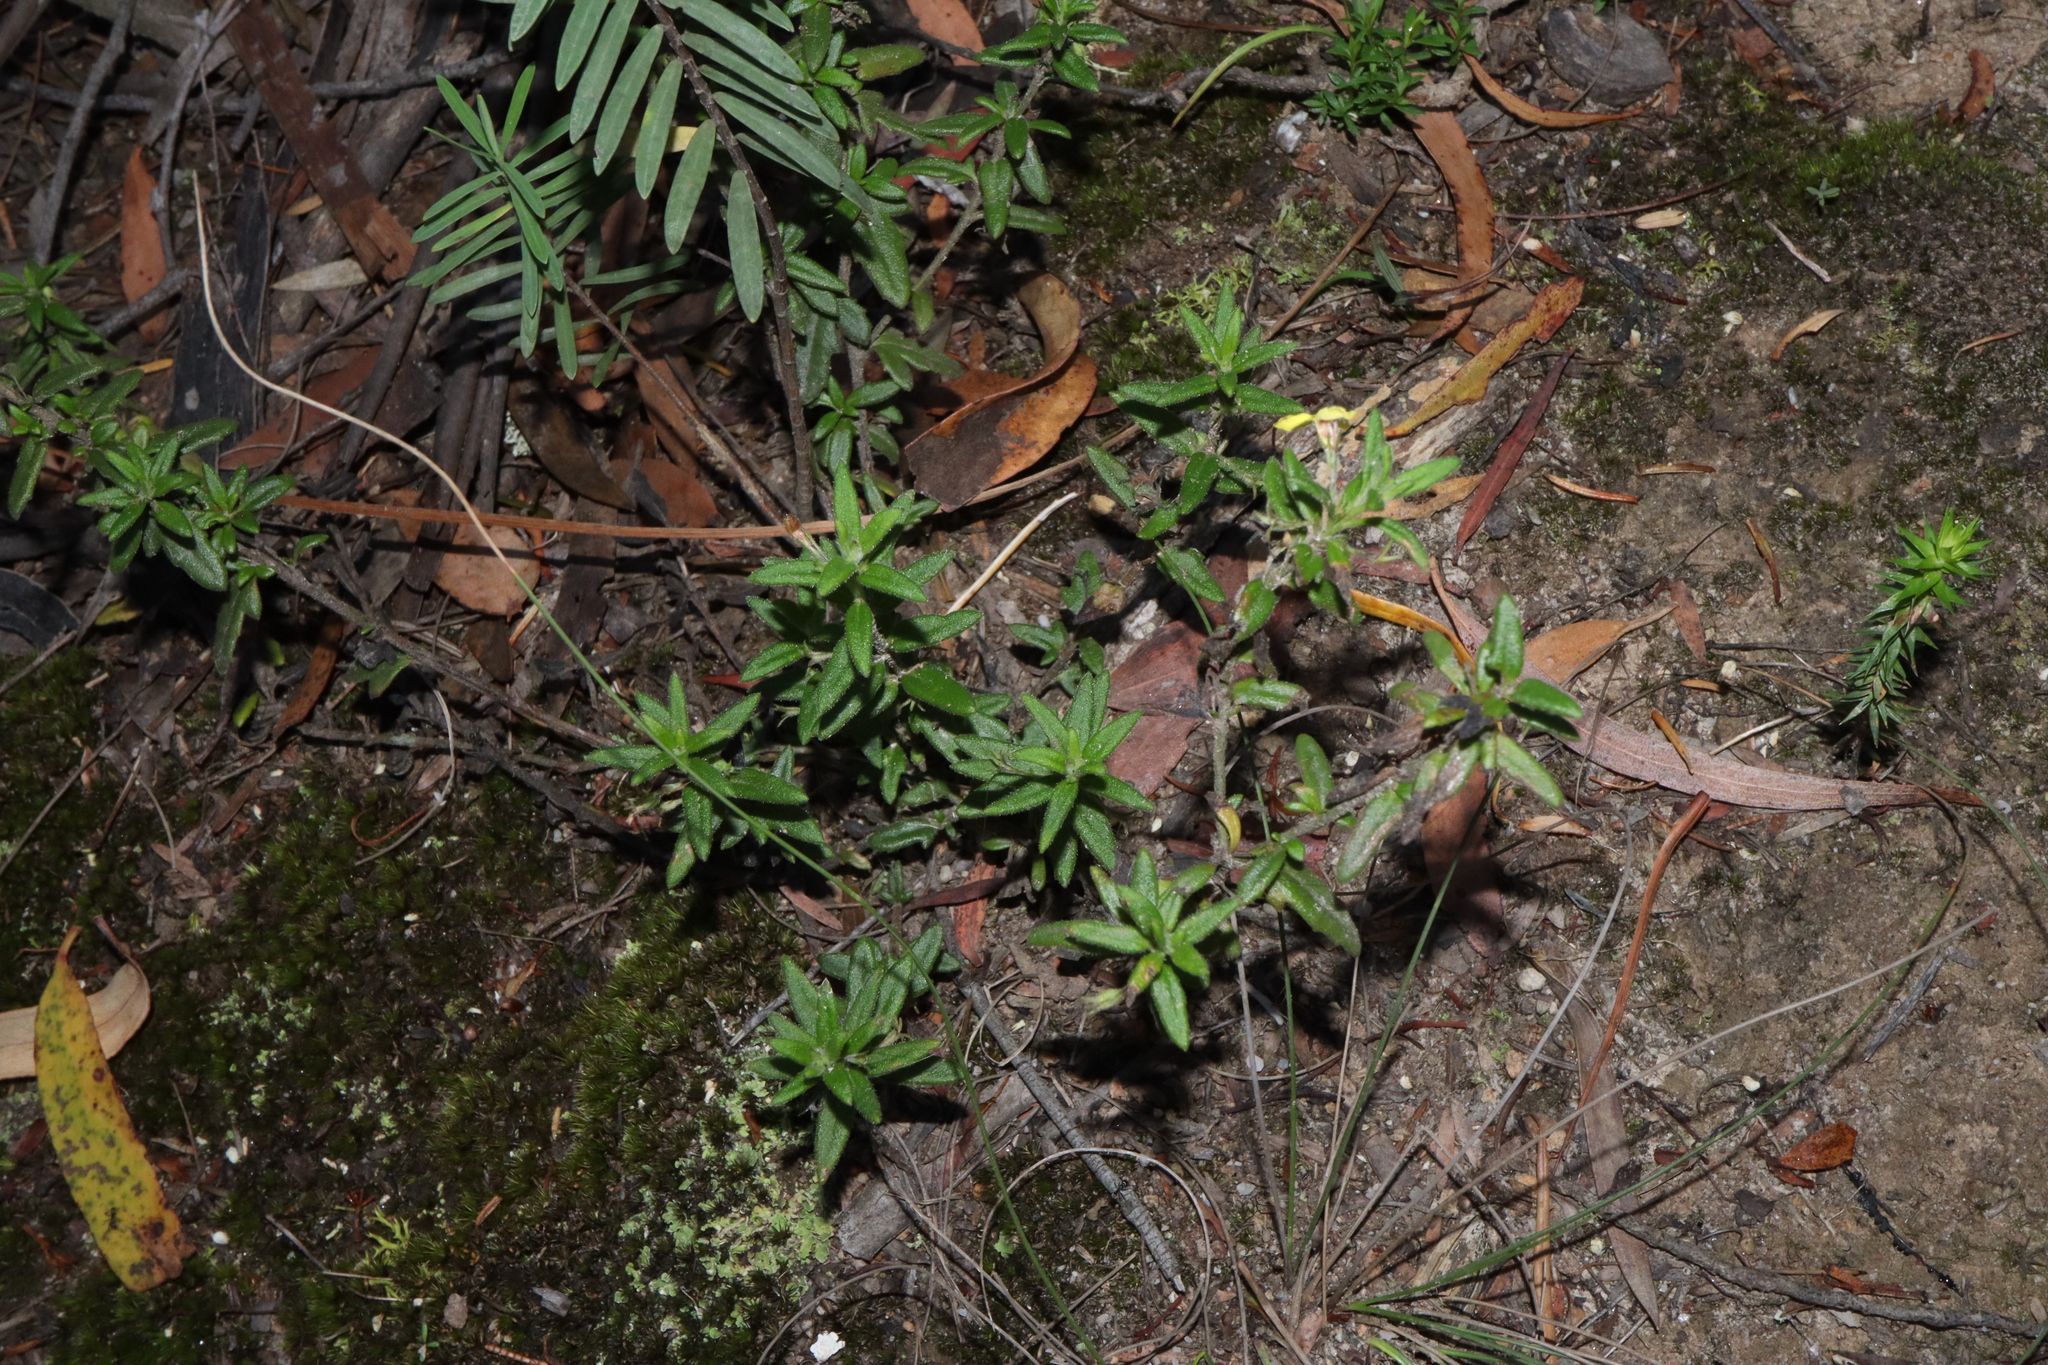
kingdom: Plantae
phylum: Tracheophyta
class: Magnoliopsida
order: Asterales
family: Goodeniaceae
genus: Goodenia
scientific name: Goodenia heterophylla
